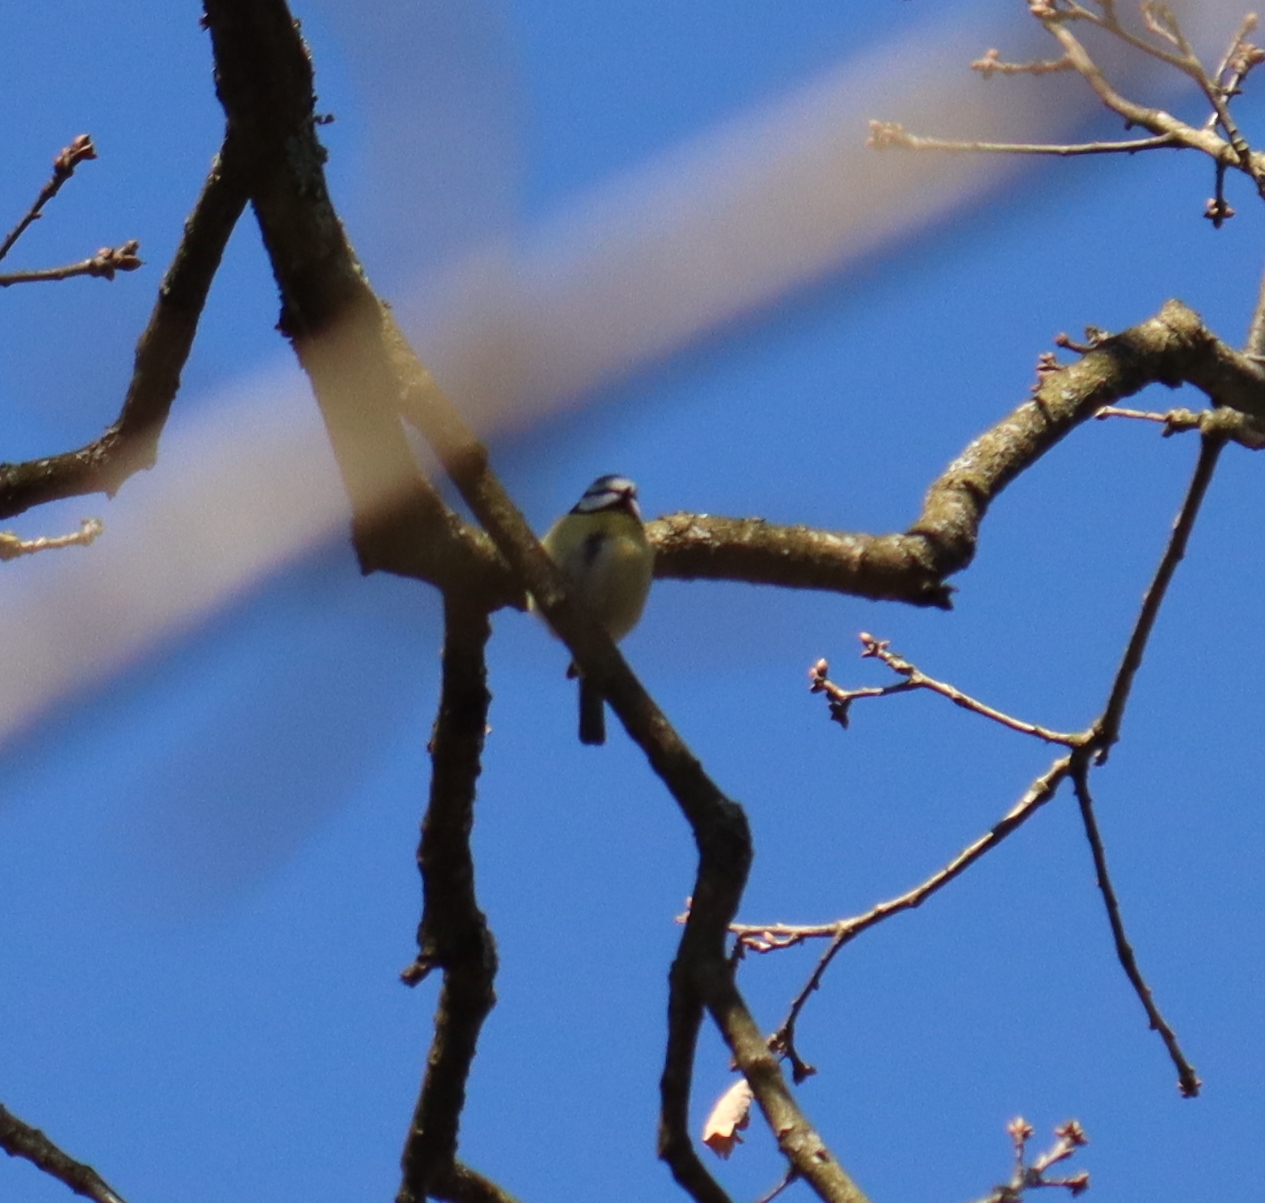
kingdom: Animalia
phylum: Chordata
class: Aves
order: Passeriformes
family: Paridae
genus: Cyanistes
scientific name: Cyanistes caeruleus
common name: Eurasian blue tit
